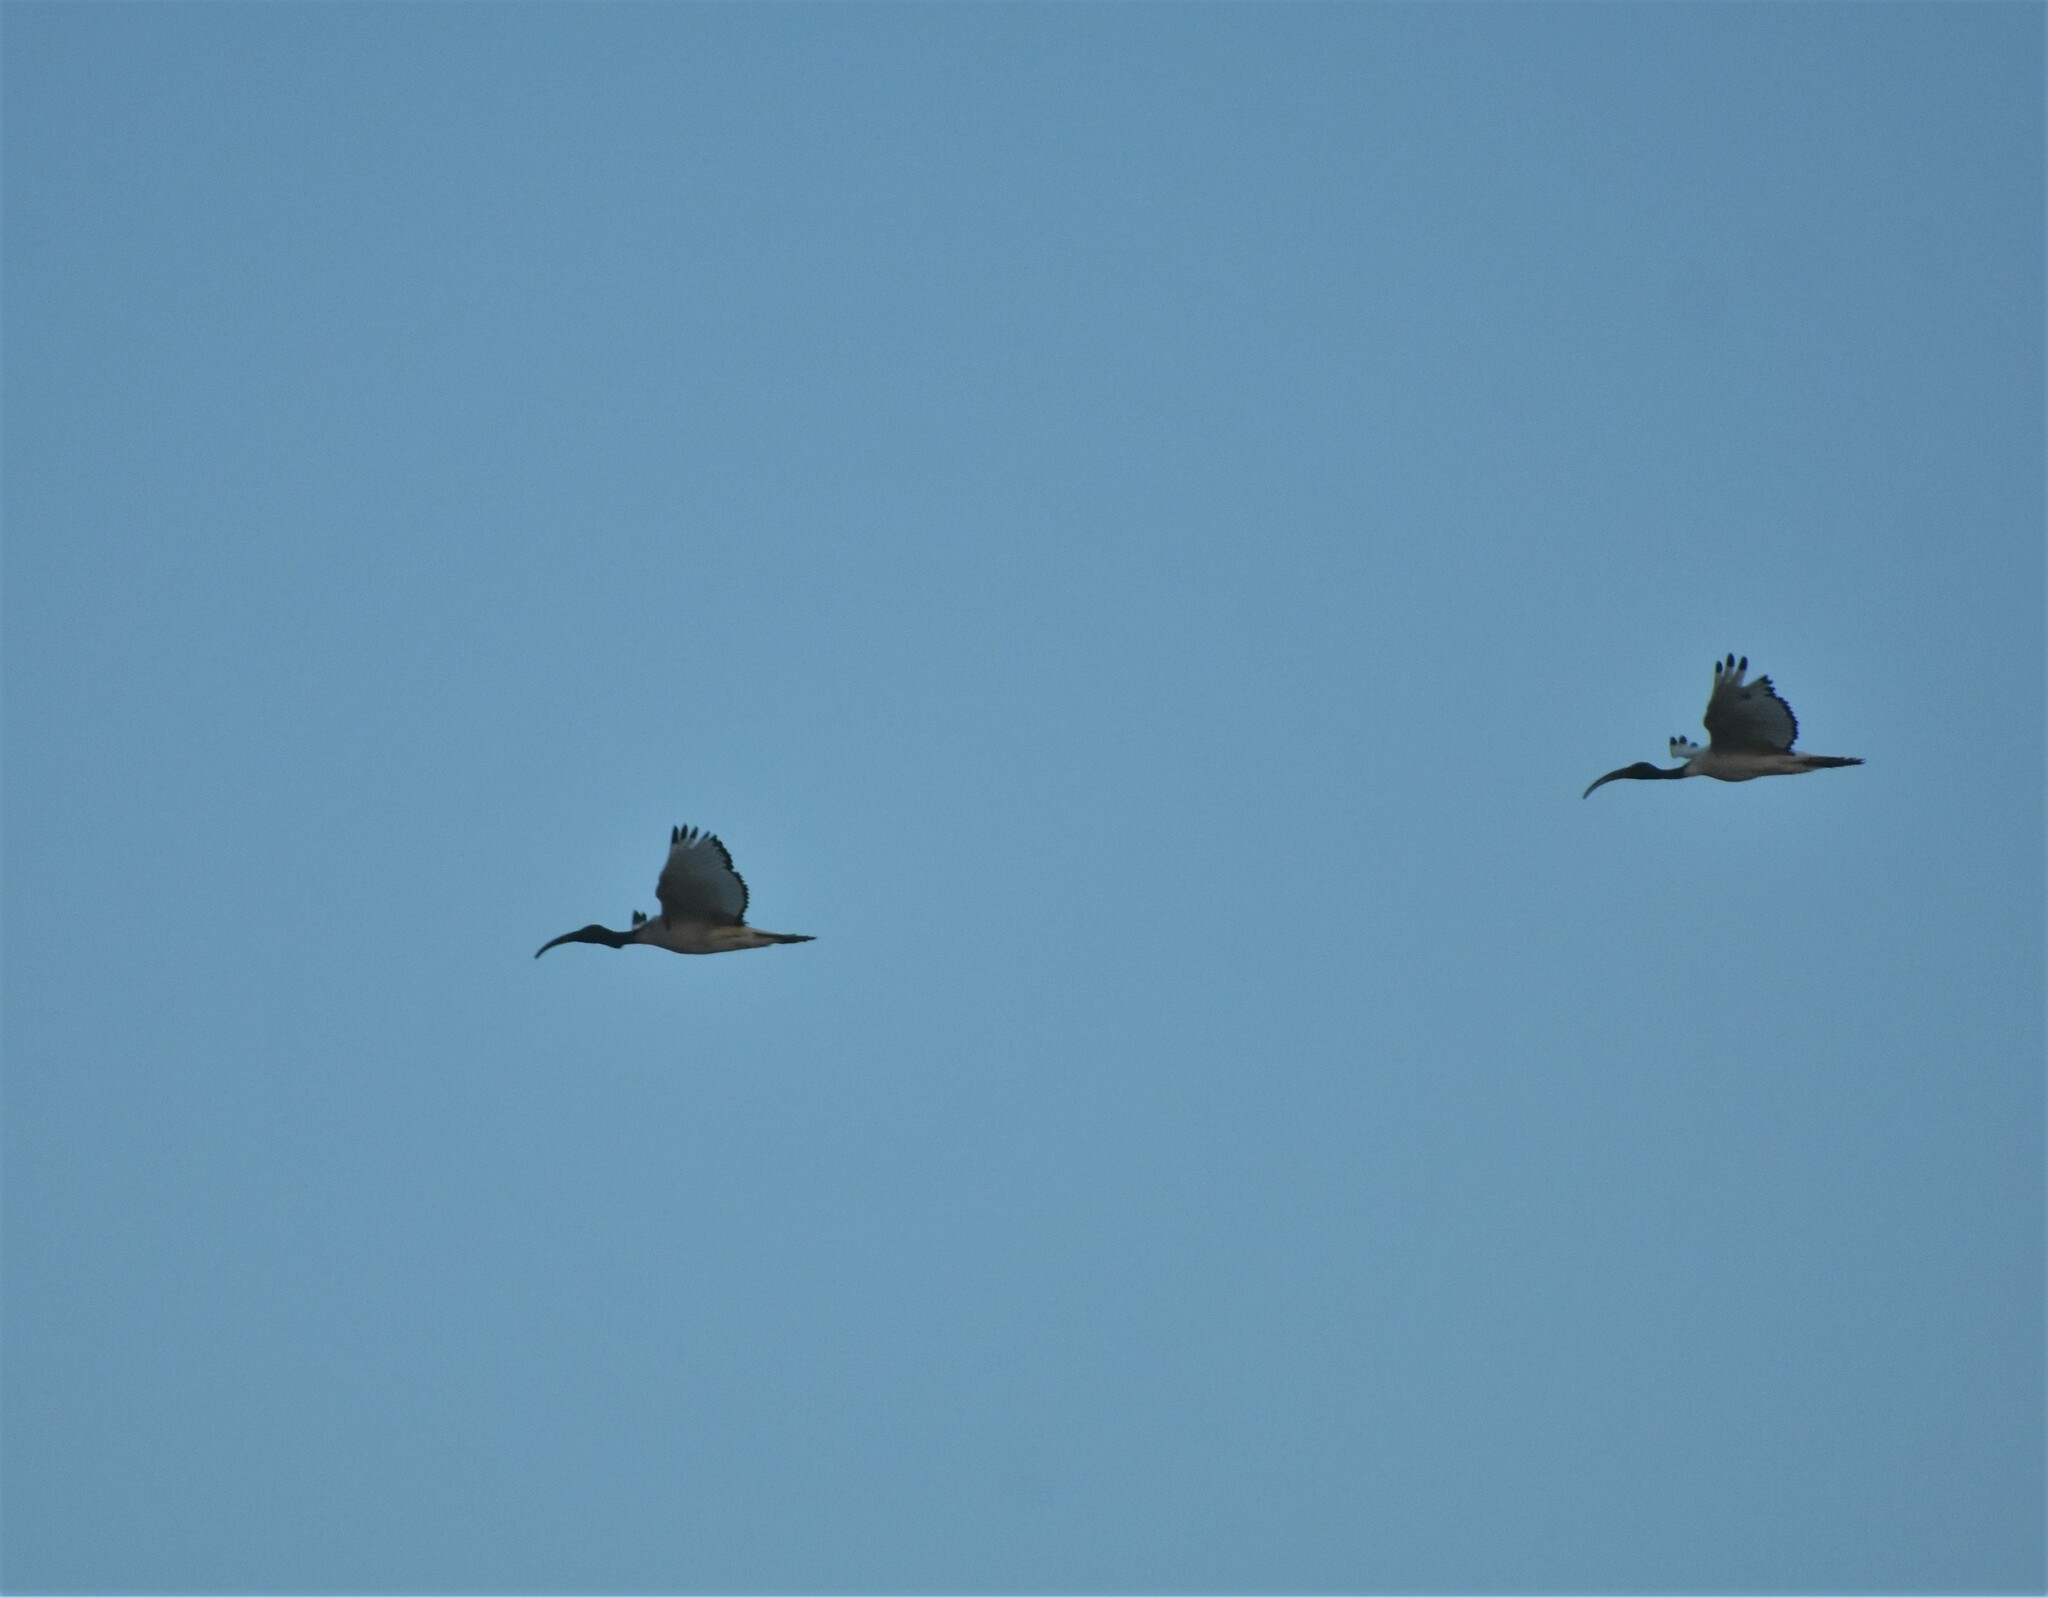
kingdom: Animalia
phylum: Chordata
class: Aves
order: Pelecaniformes
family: Threskiornithidae
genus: Threskiornis
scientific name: Threskiornis aethiopicus
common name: Sacred ibis
